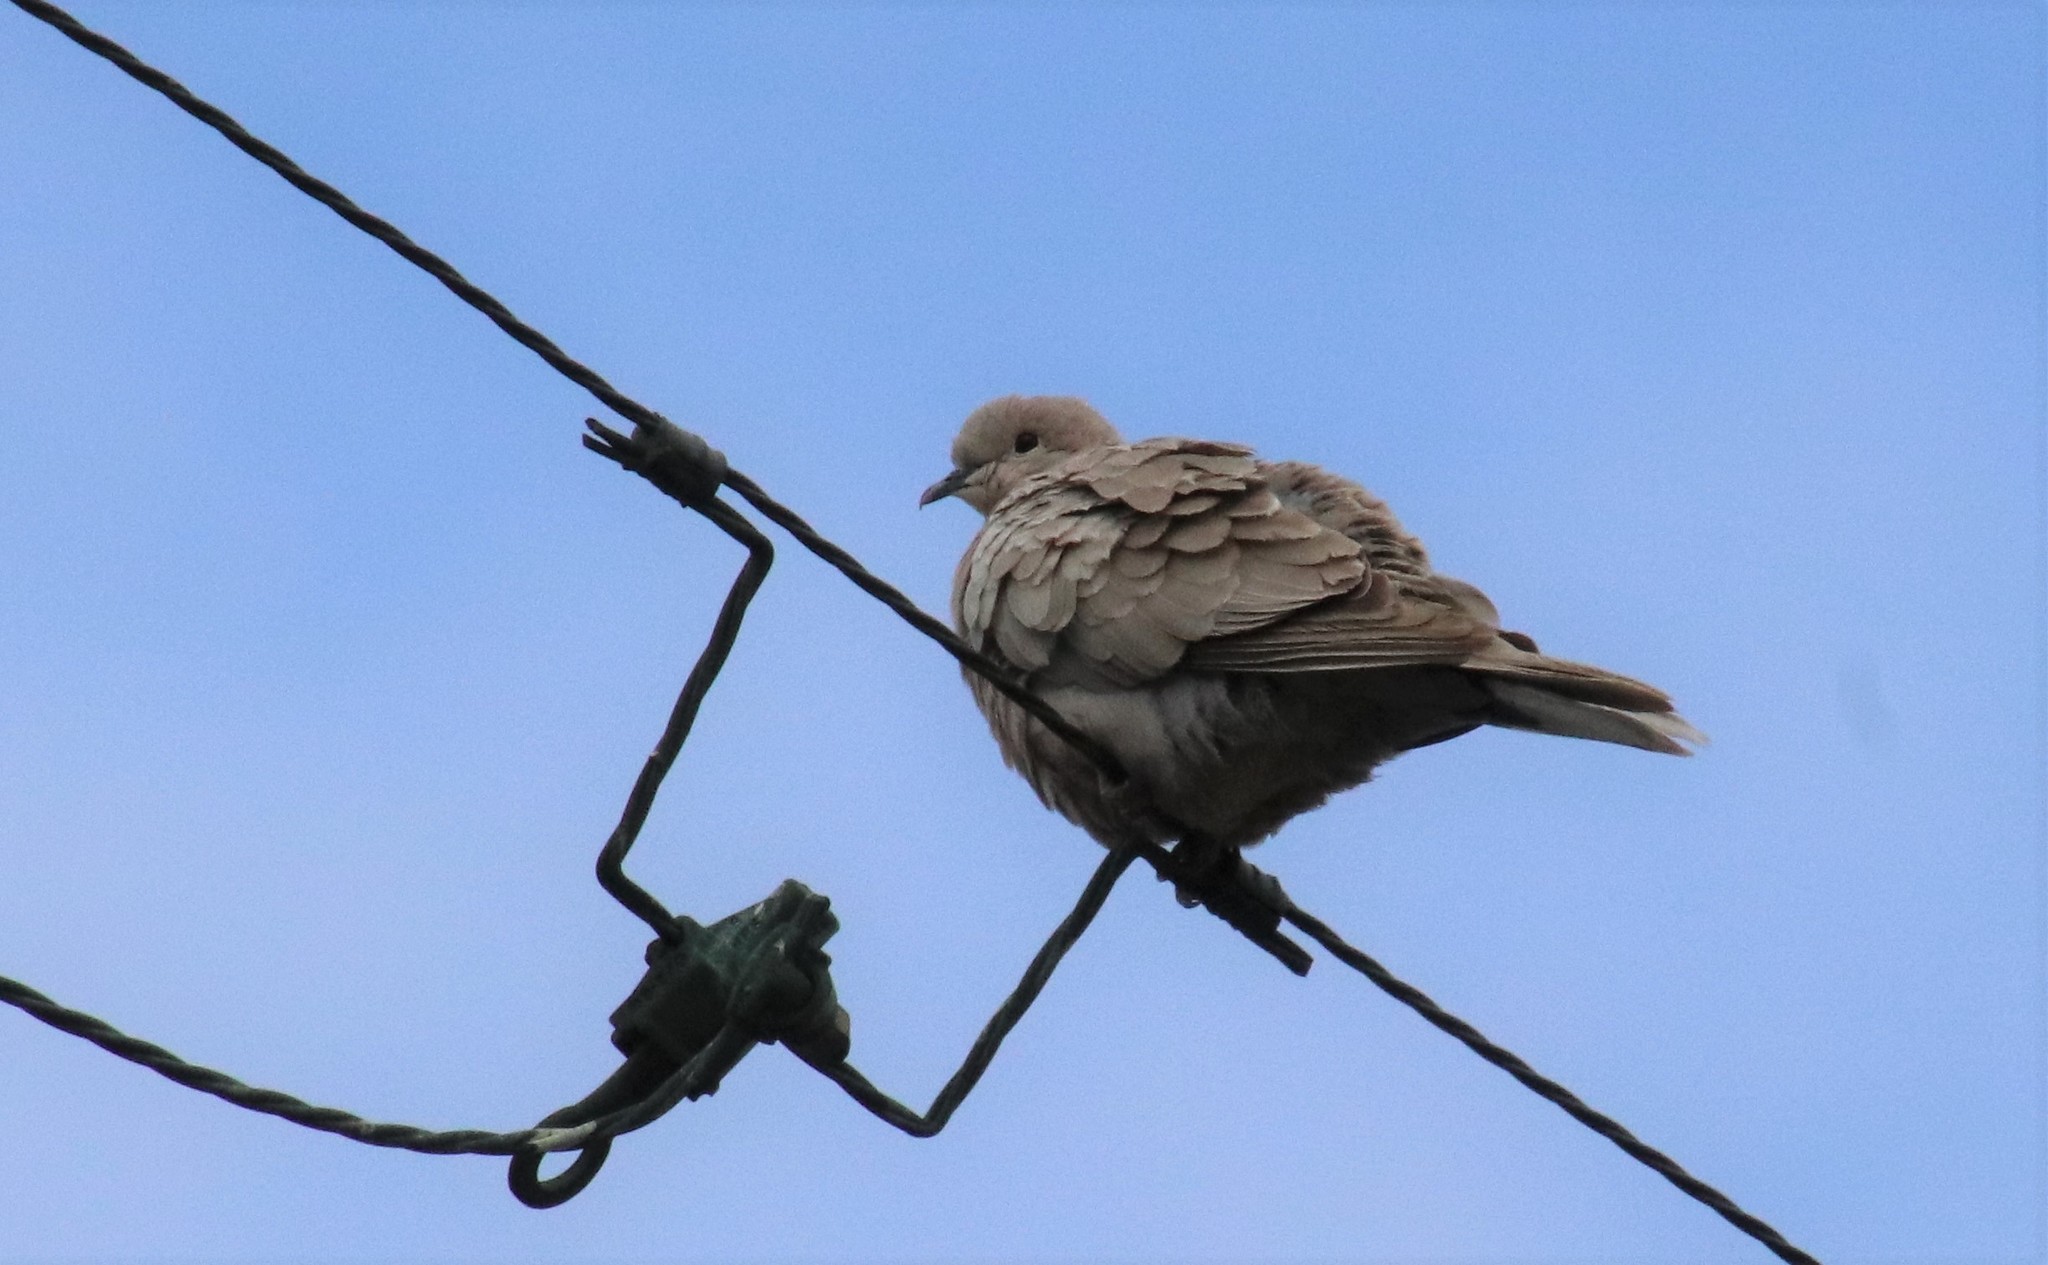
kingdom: Animalia
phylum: Chordata
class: Aves
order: Columbiformes
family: Columbidae
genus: Streptopelia
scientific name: Streptopelia decaocto
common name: Eurasian collared dove
